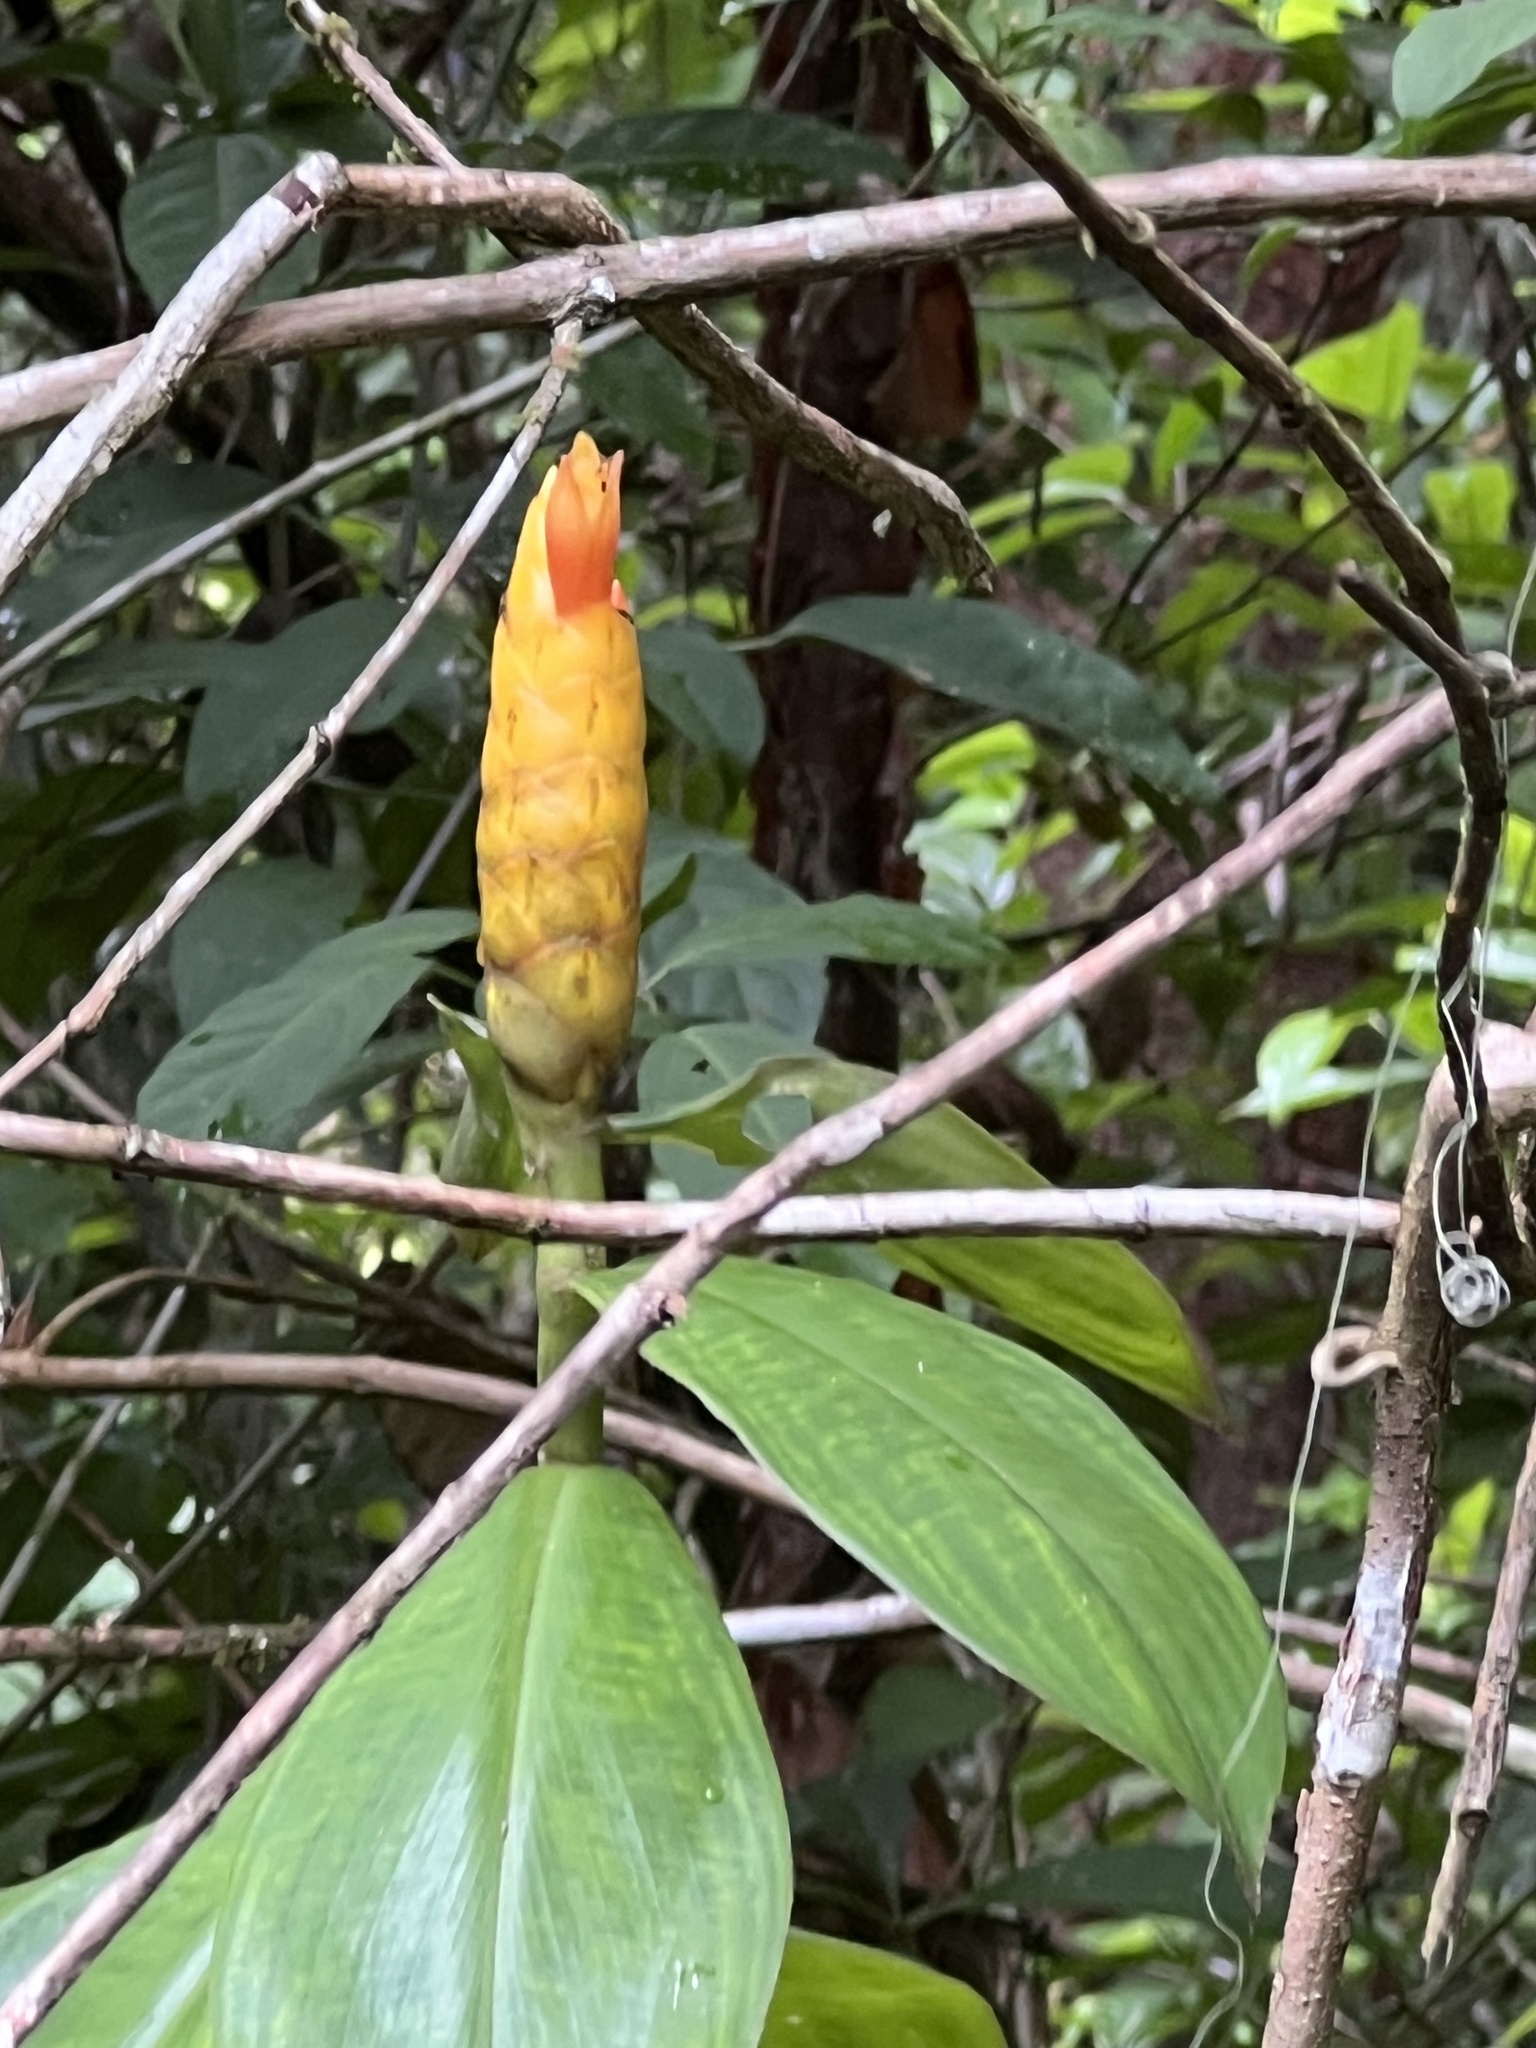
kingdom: Plantae
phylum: Tracheophyta
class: Liliopsida
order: Zingiberales
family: Costaceae
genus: Costus
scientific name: Costus scaber
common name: Spiral head ginger
